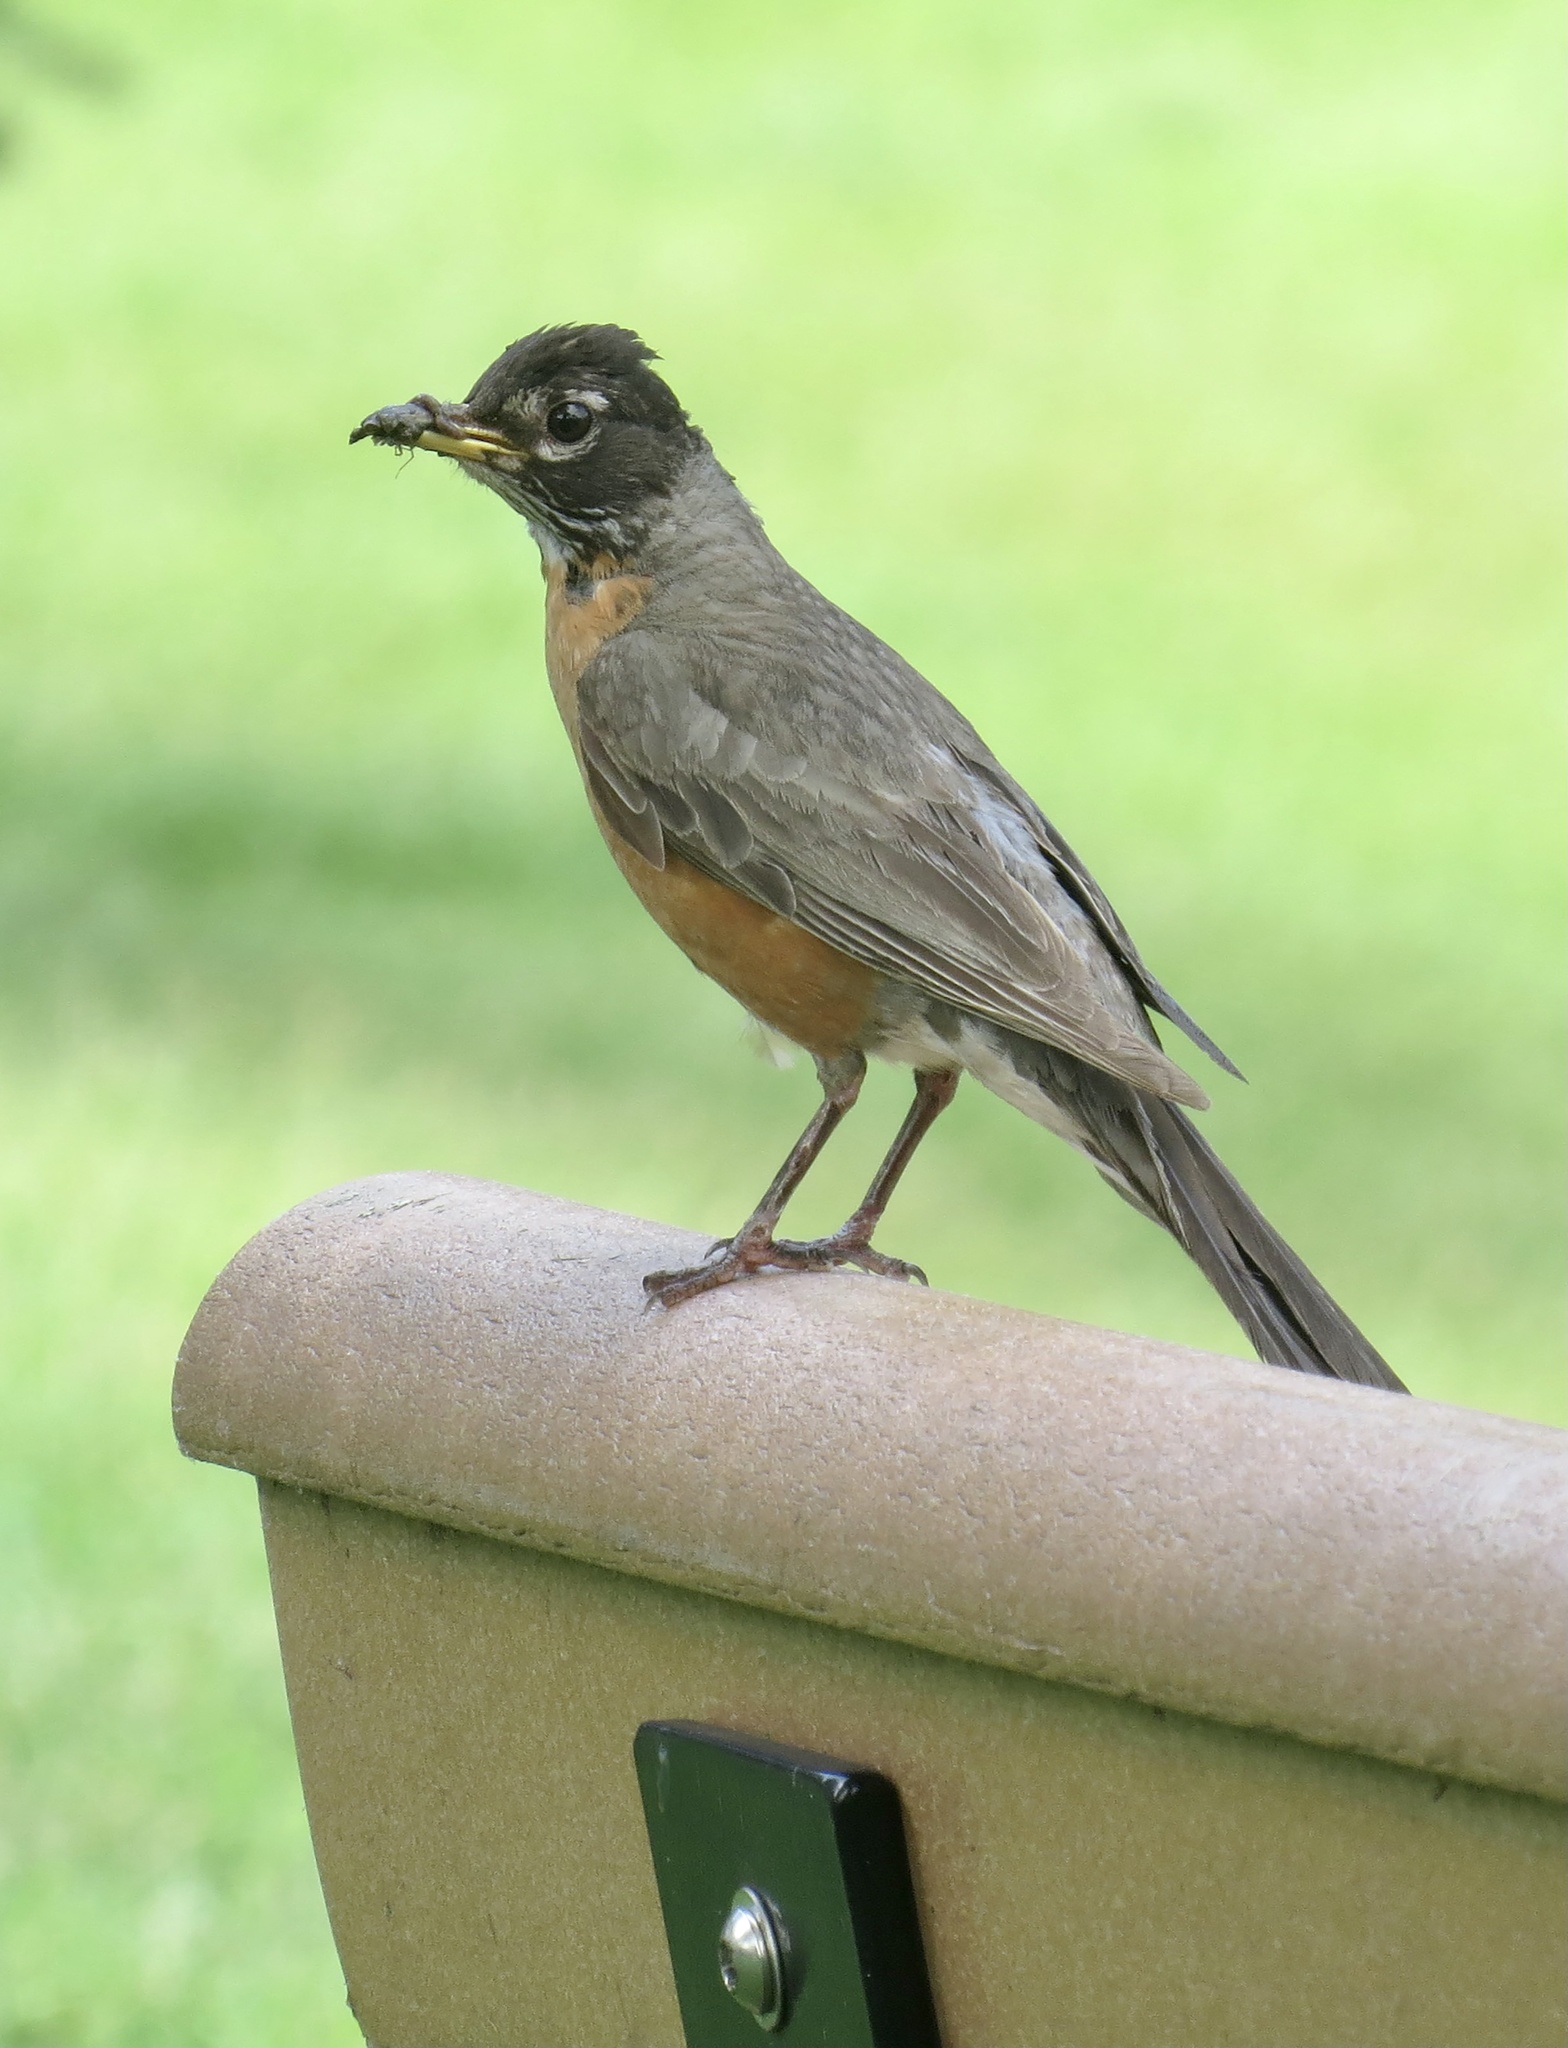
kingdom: Animalia
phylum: Chordata
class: Aves
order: Passeriformes
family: Turdidae
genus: Turdus
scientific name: Turdus migratorius
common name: American robin
